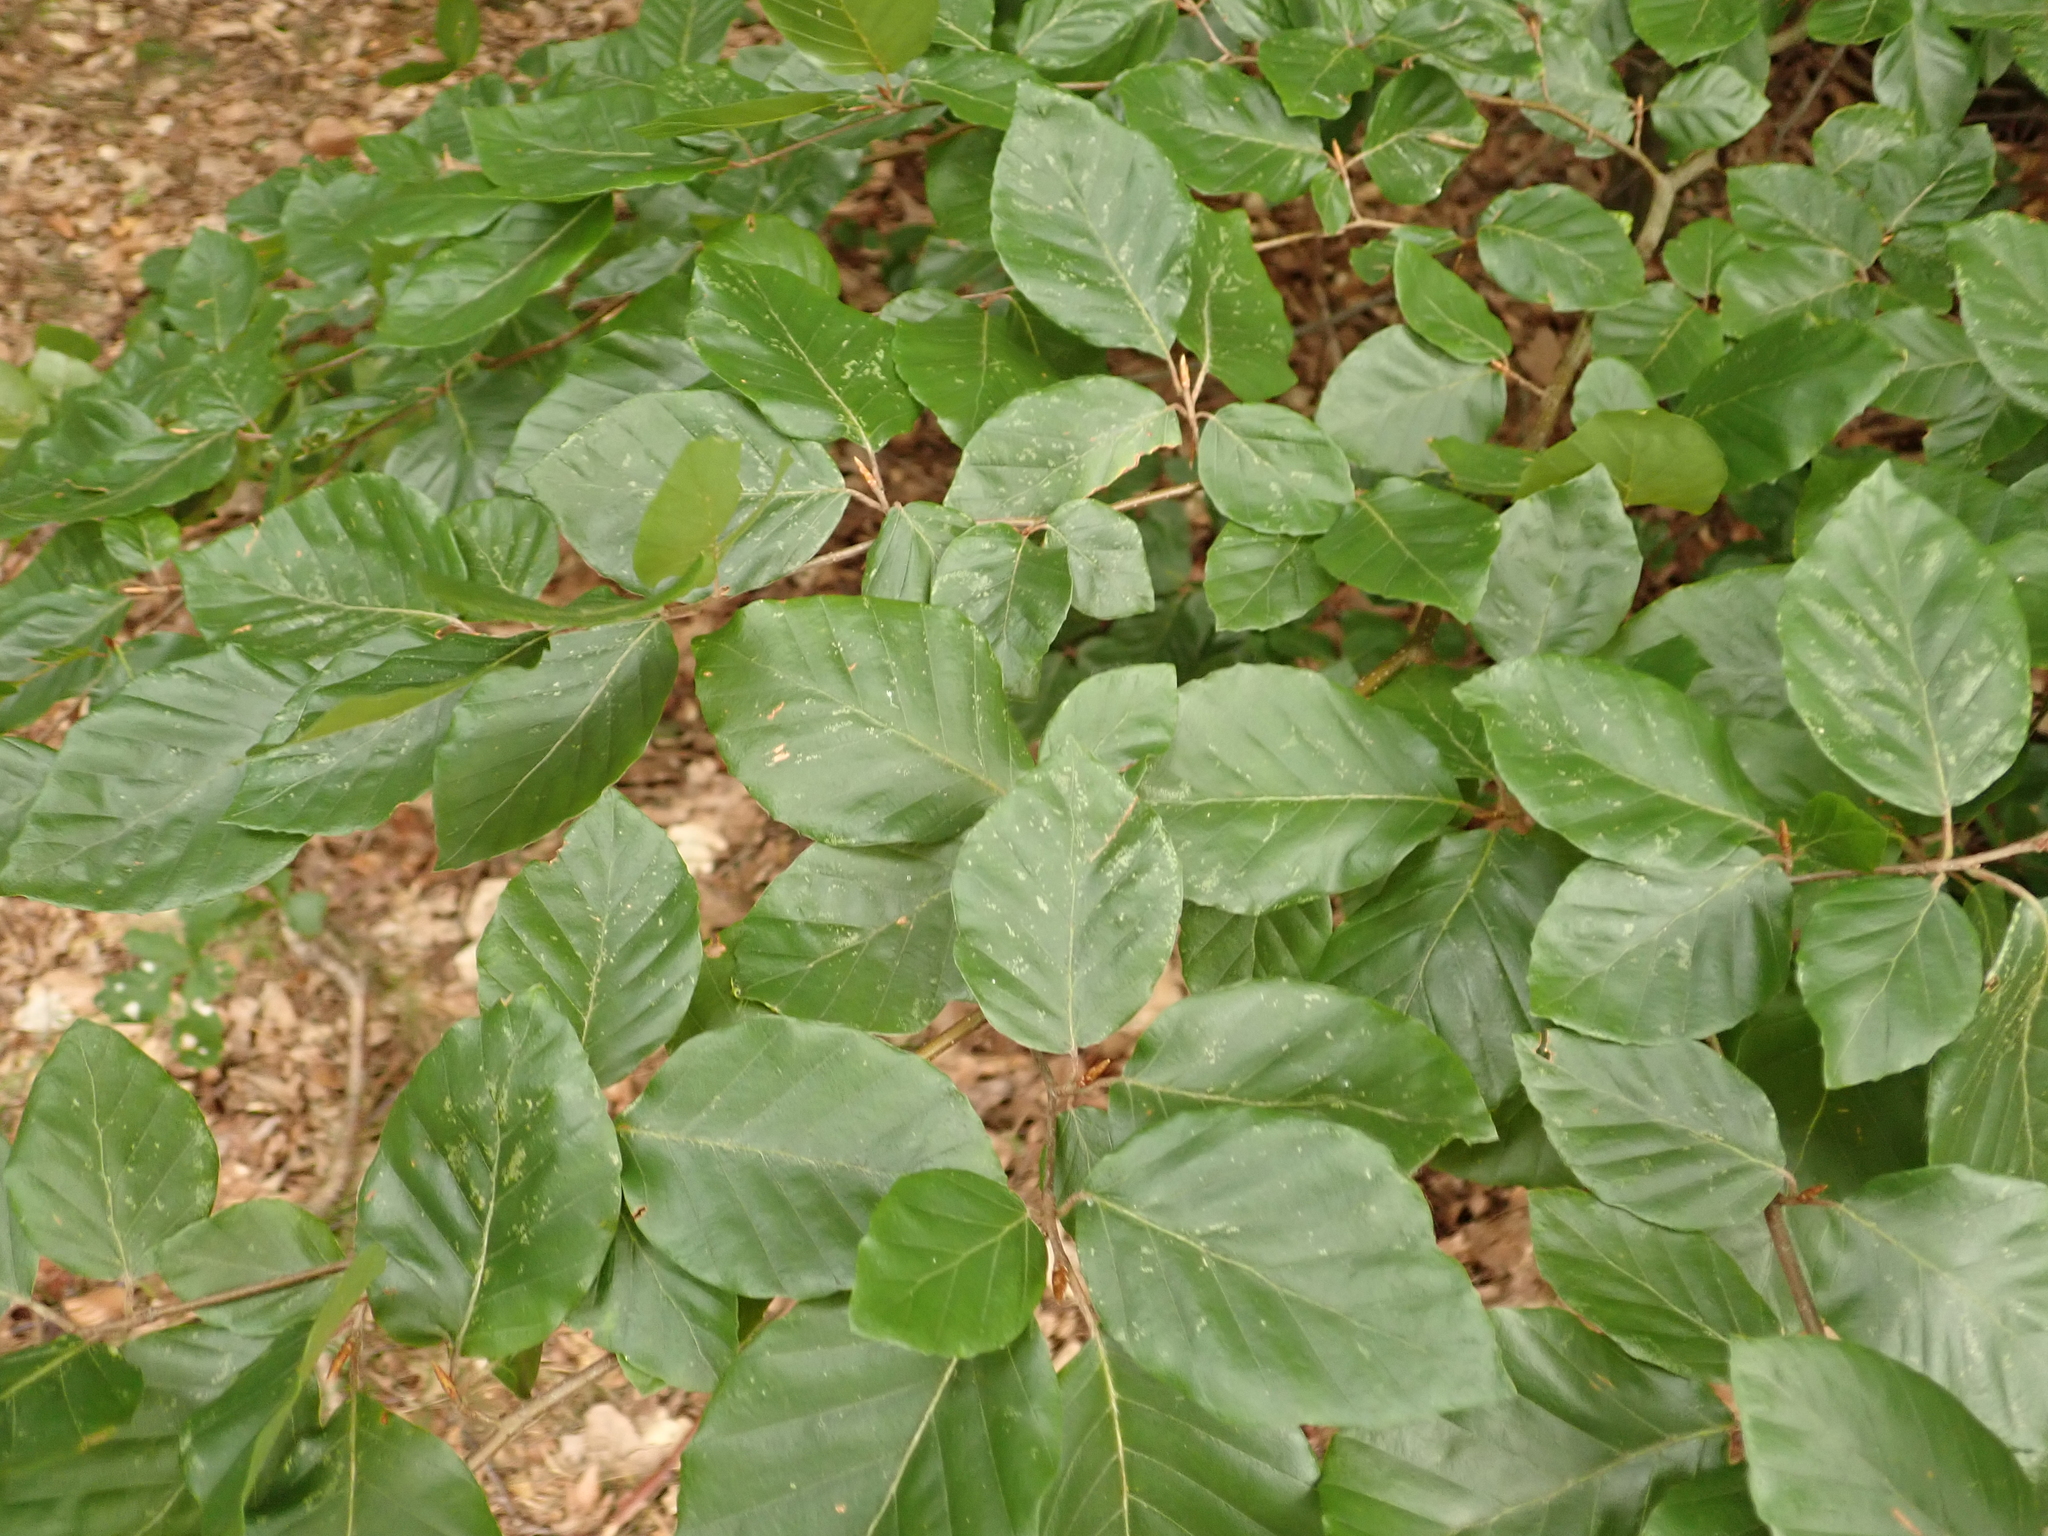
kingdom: Plantae
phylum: Tracheophyta
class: Magnoliopsida
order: Fagales
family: Fagaceae
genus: Fagus
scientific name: Fagus sylvatica
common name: Beech
